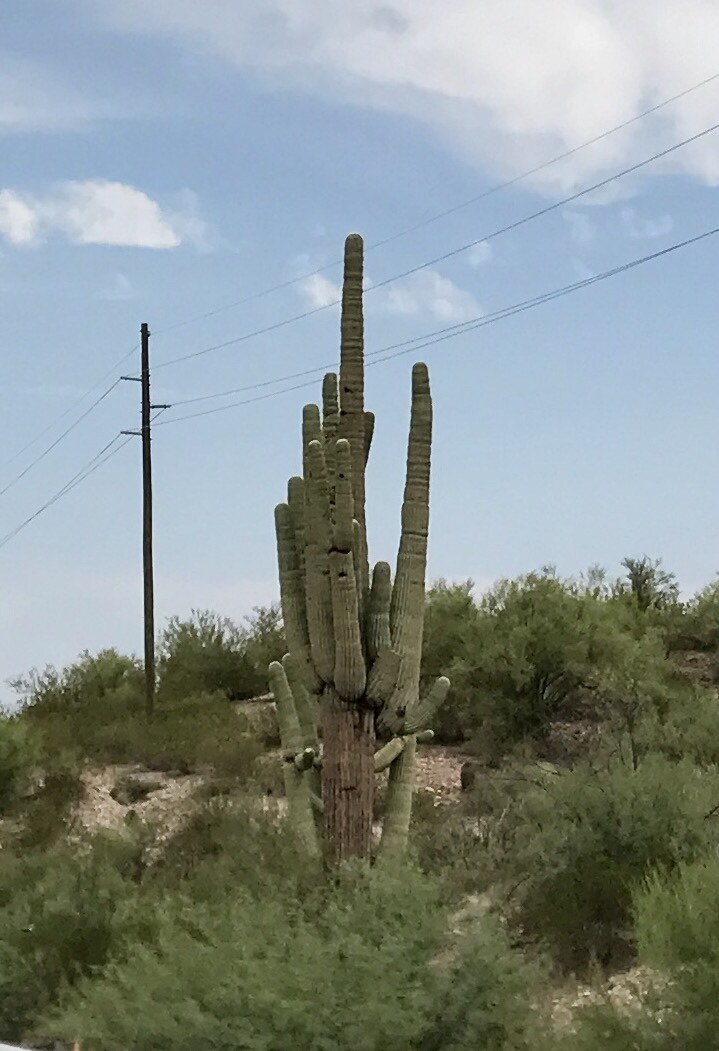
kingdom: Plantae
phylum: Tracheophyta
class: Magnoliopsida
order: Caryophyllales
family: Cactaceae
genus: Carnegiea
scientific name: Carnegiea gigantea
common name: Saguaro
